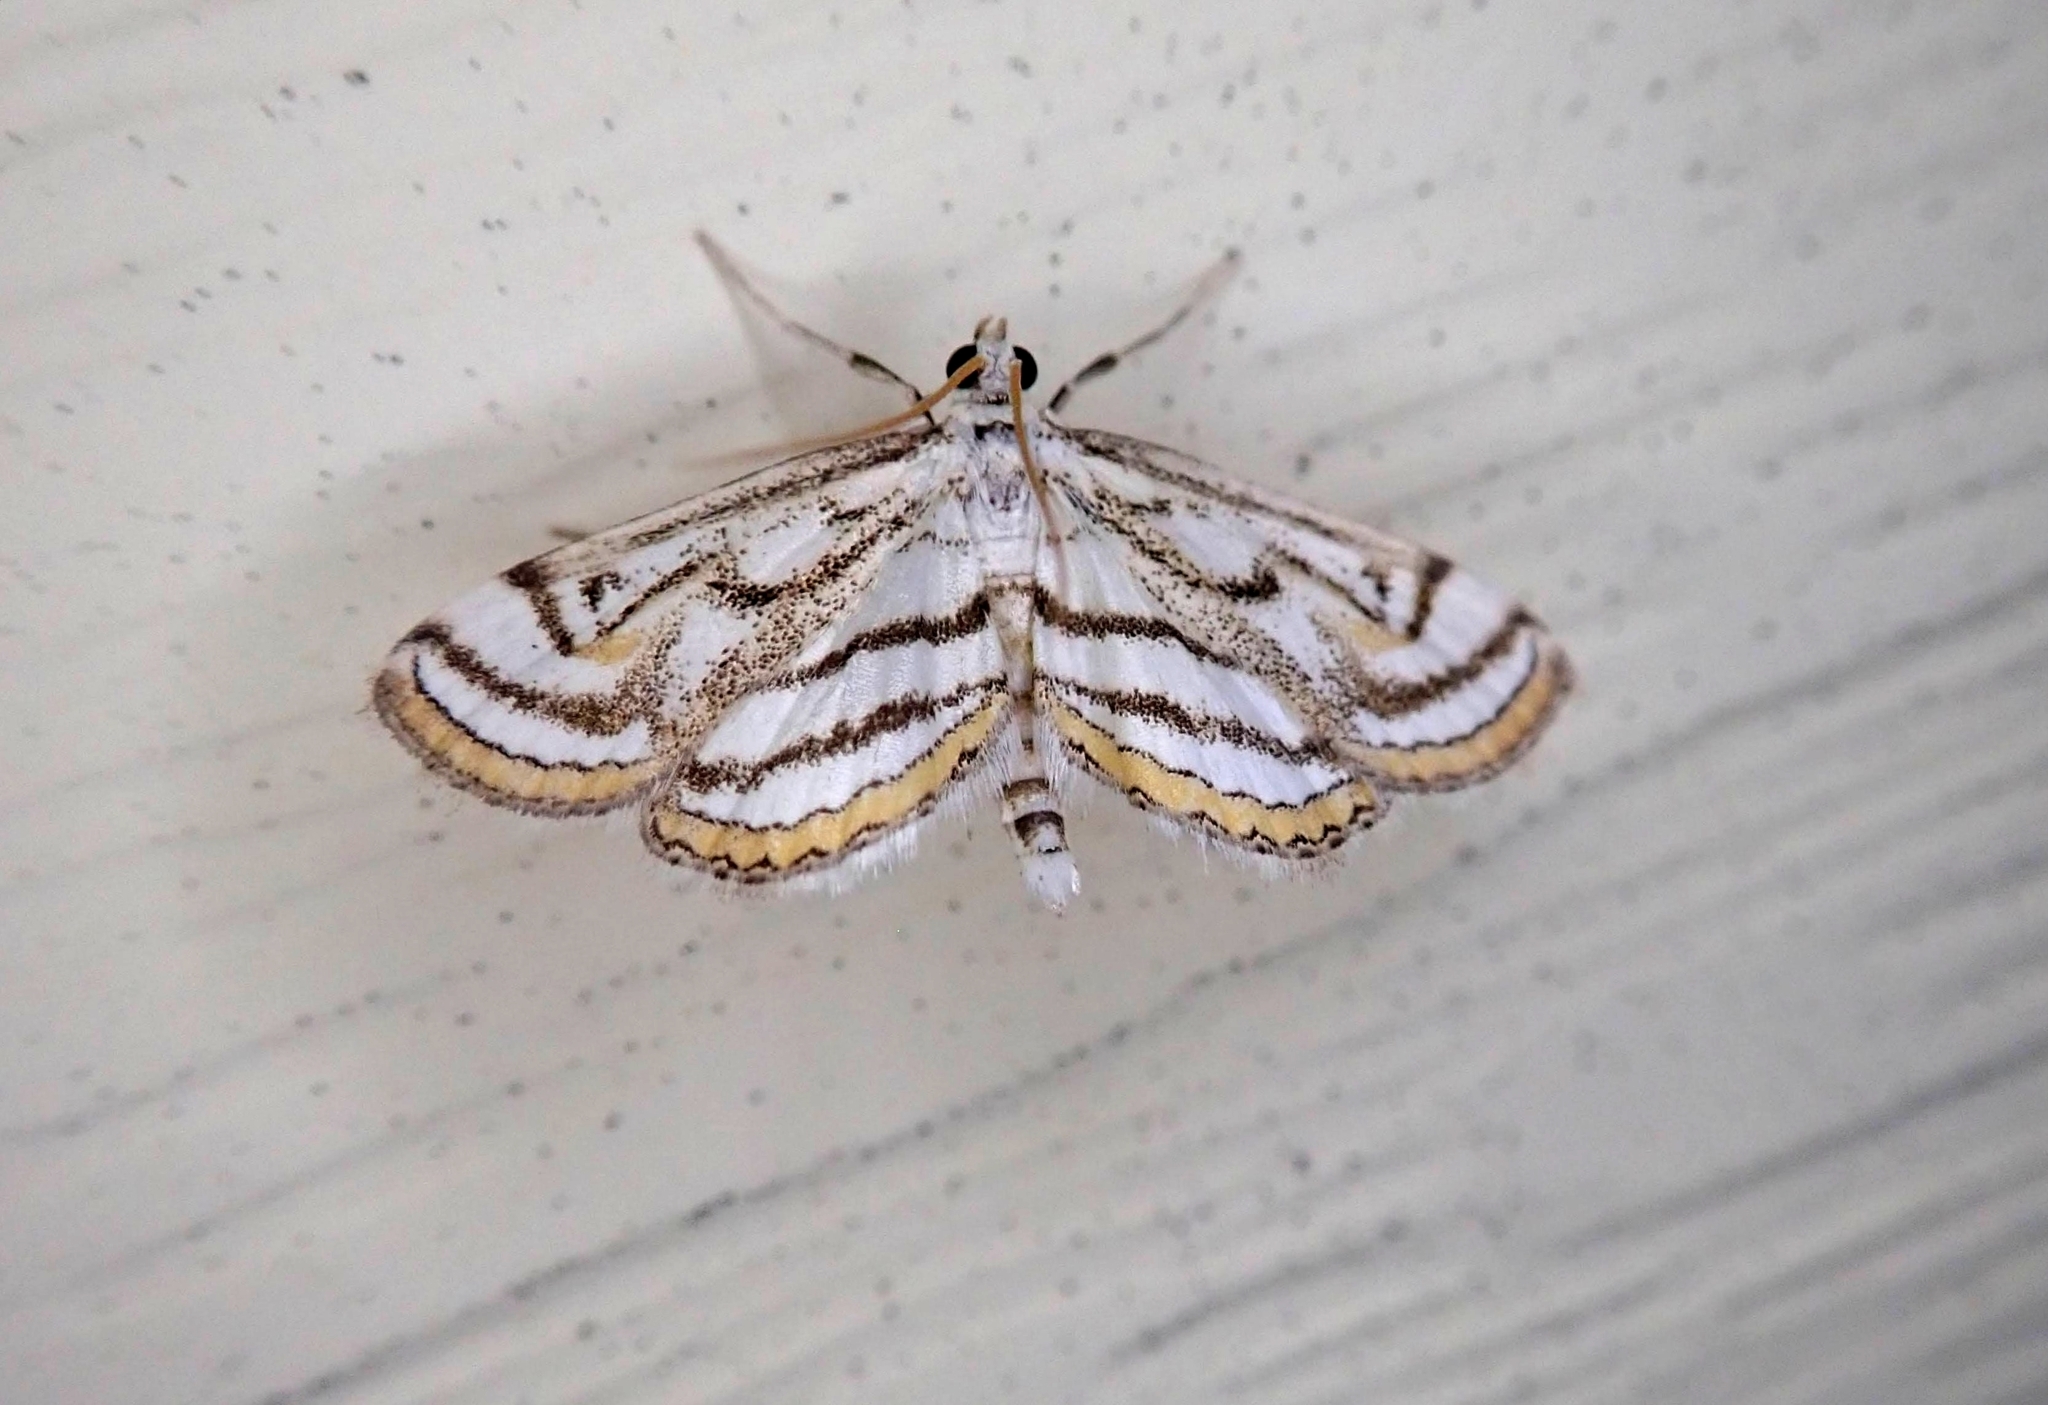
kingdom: Animalia
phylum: Arthropoda
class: Insecta
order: Lepidoptera
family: Crambidae
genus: Parapoynx
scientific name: Parapoynx badiusalis
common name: Chestnut-marked pondweed moth
